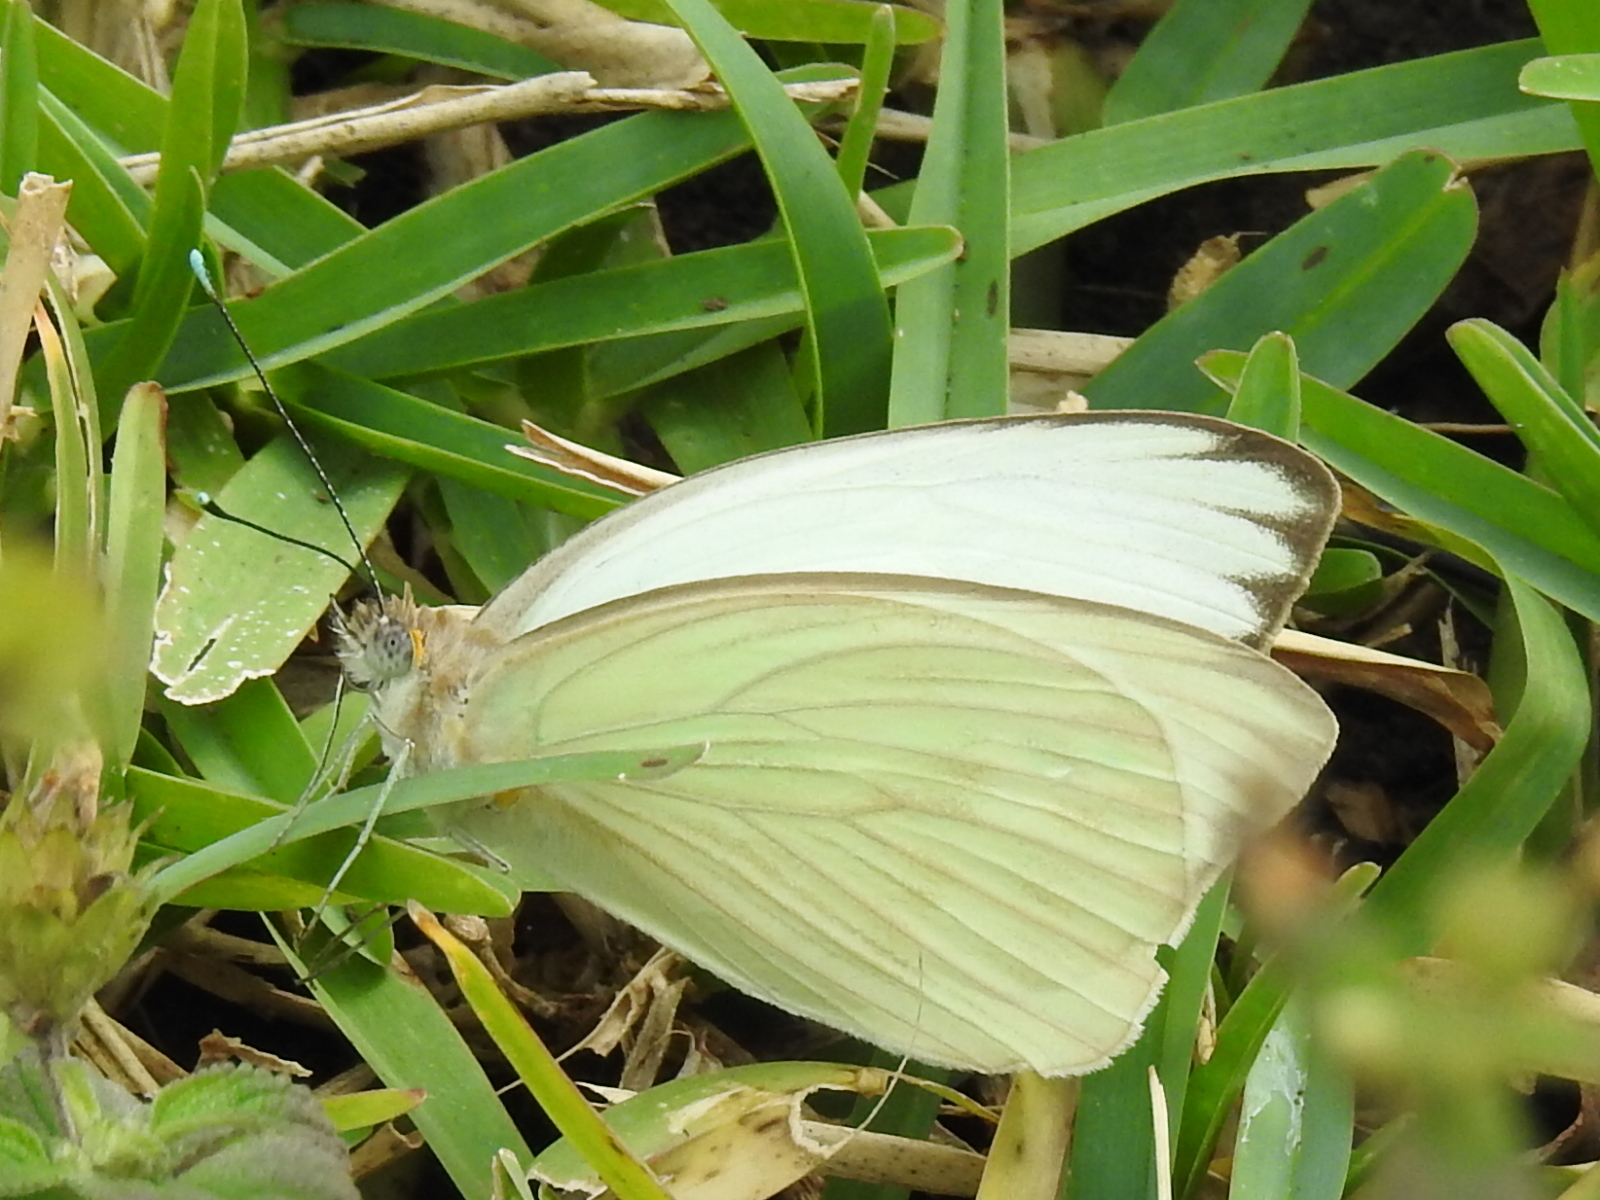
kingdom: Animalia
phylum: Arthropoda
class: Insecta
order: Lepidoptera
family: Pieridae
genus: Ascia
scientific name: Ascia monuste
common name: Great southern white
